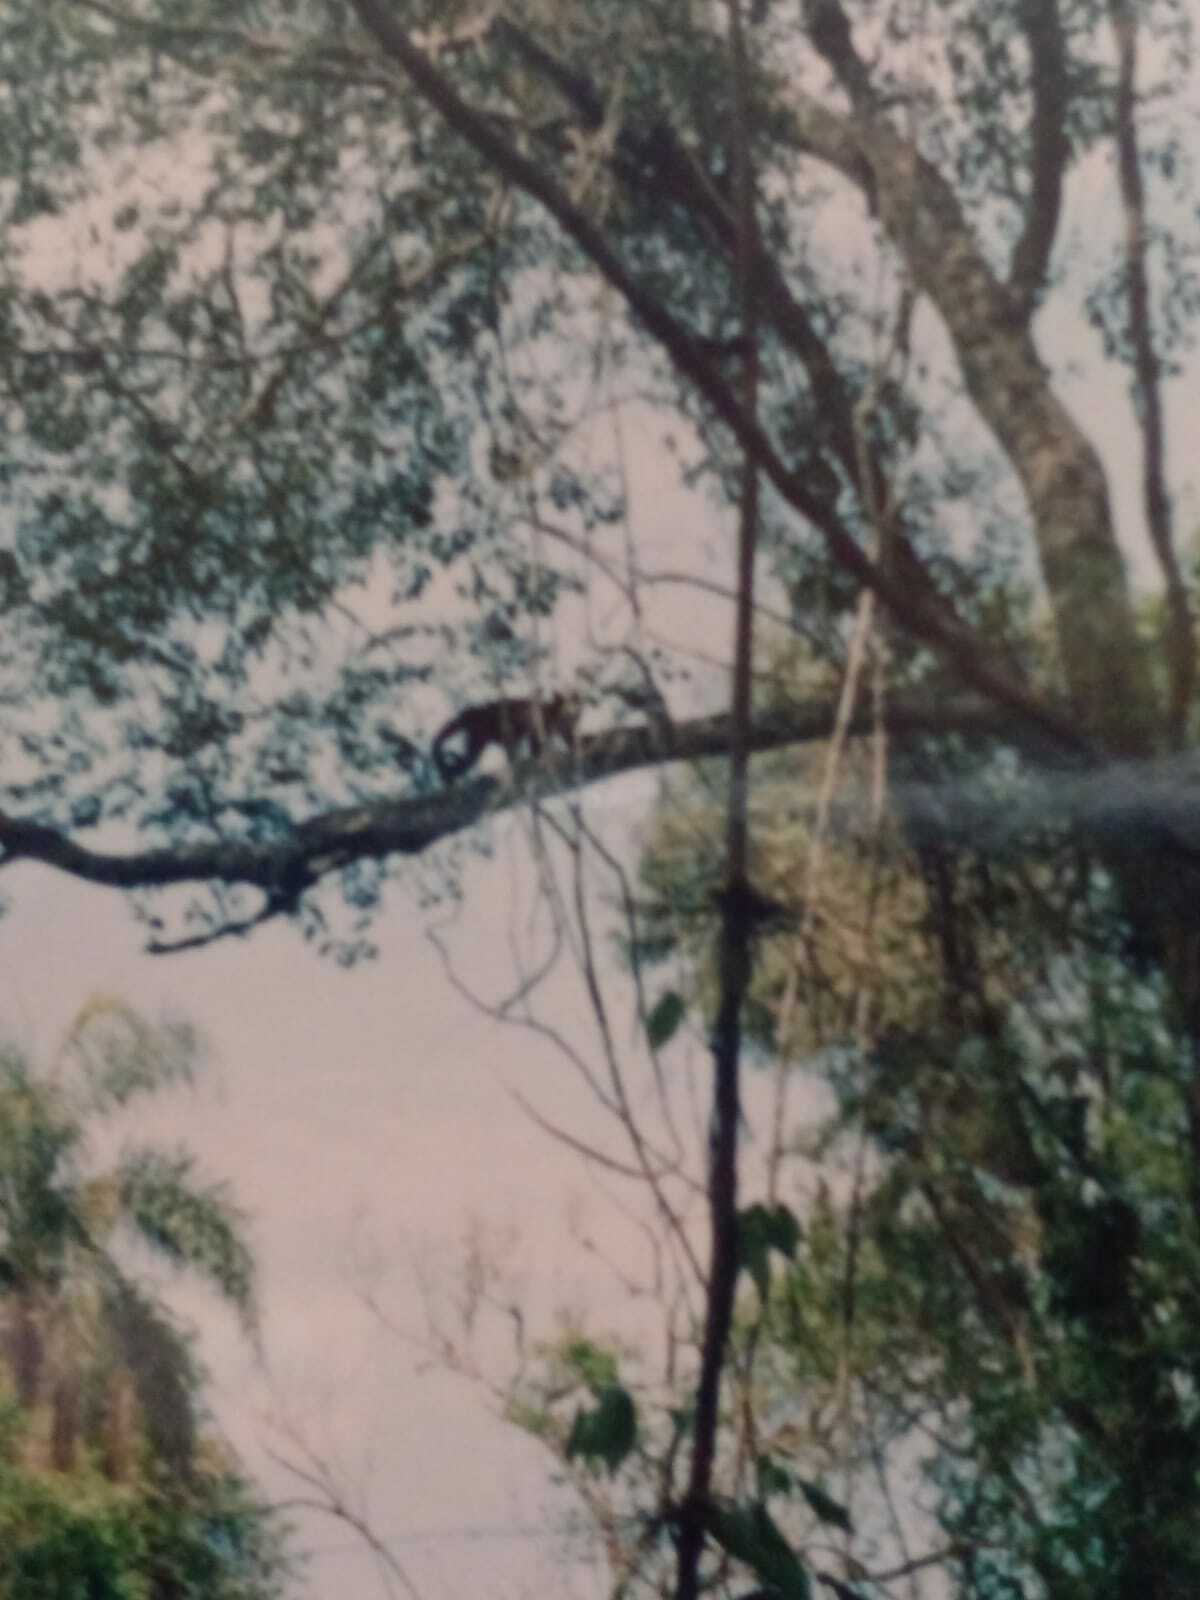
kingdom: Animalia
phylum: Chordata
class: Mammalia
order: Primates
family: Cebidae
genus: Sapajus
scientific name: Sapajus nigritus
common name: Black capuchin
